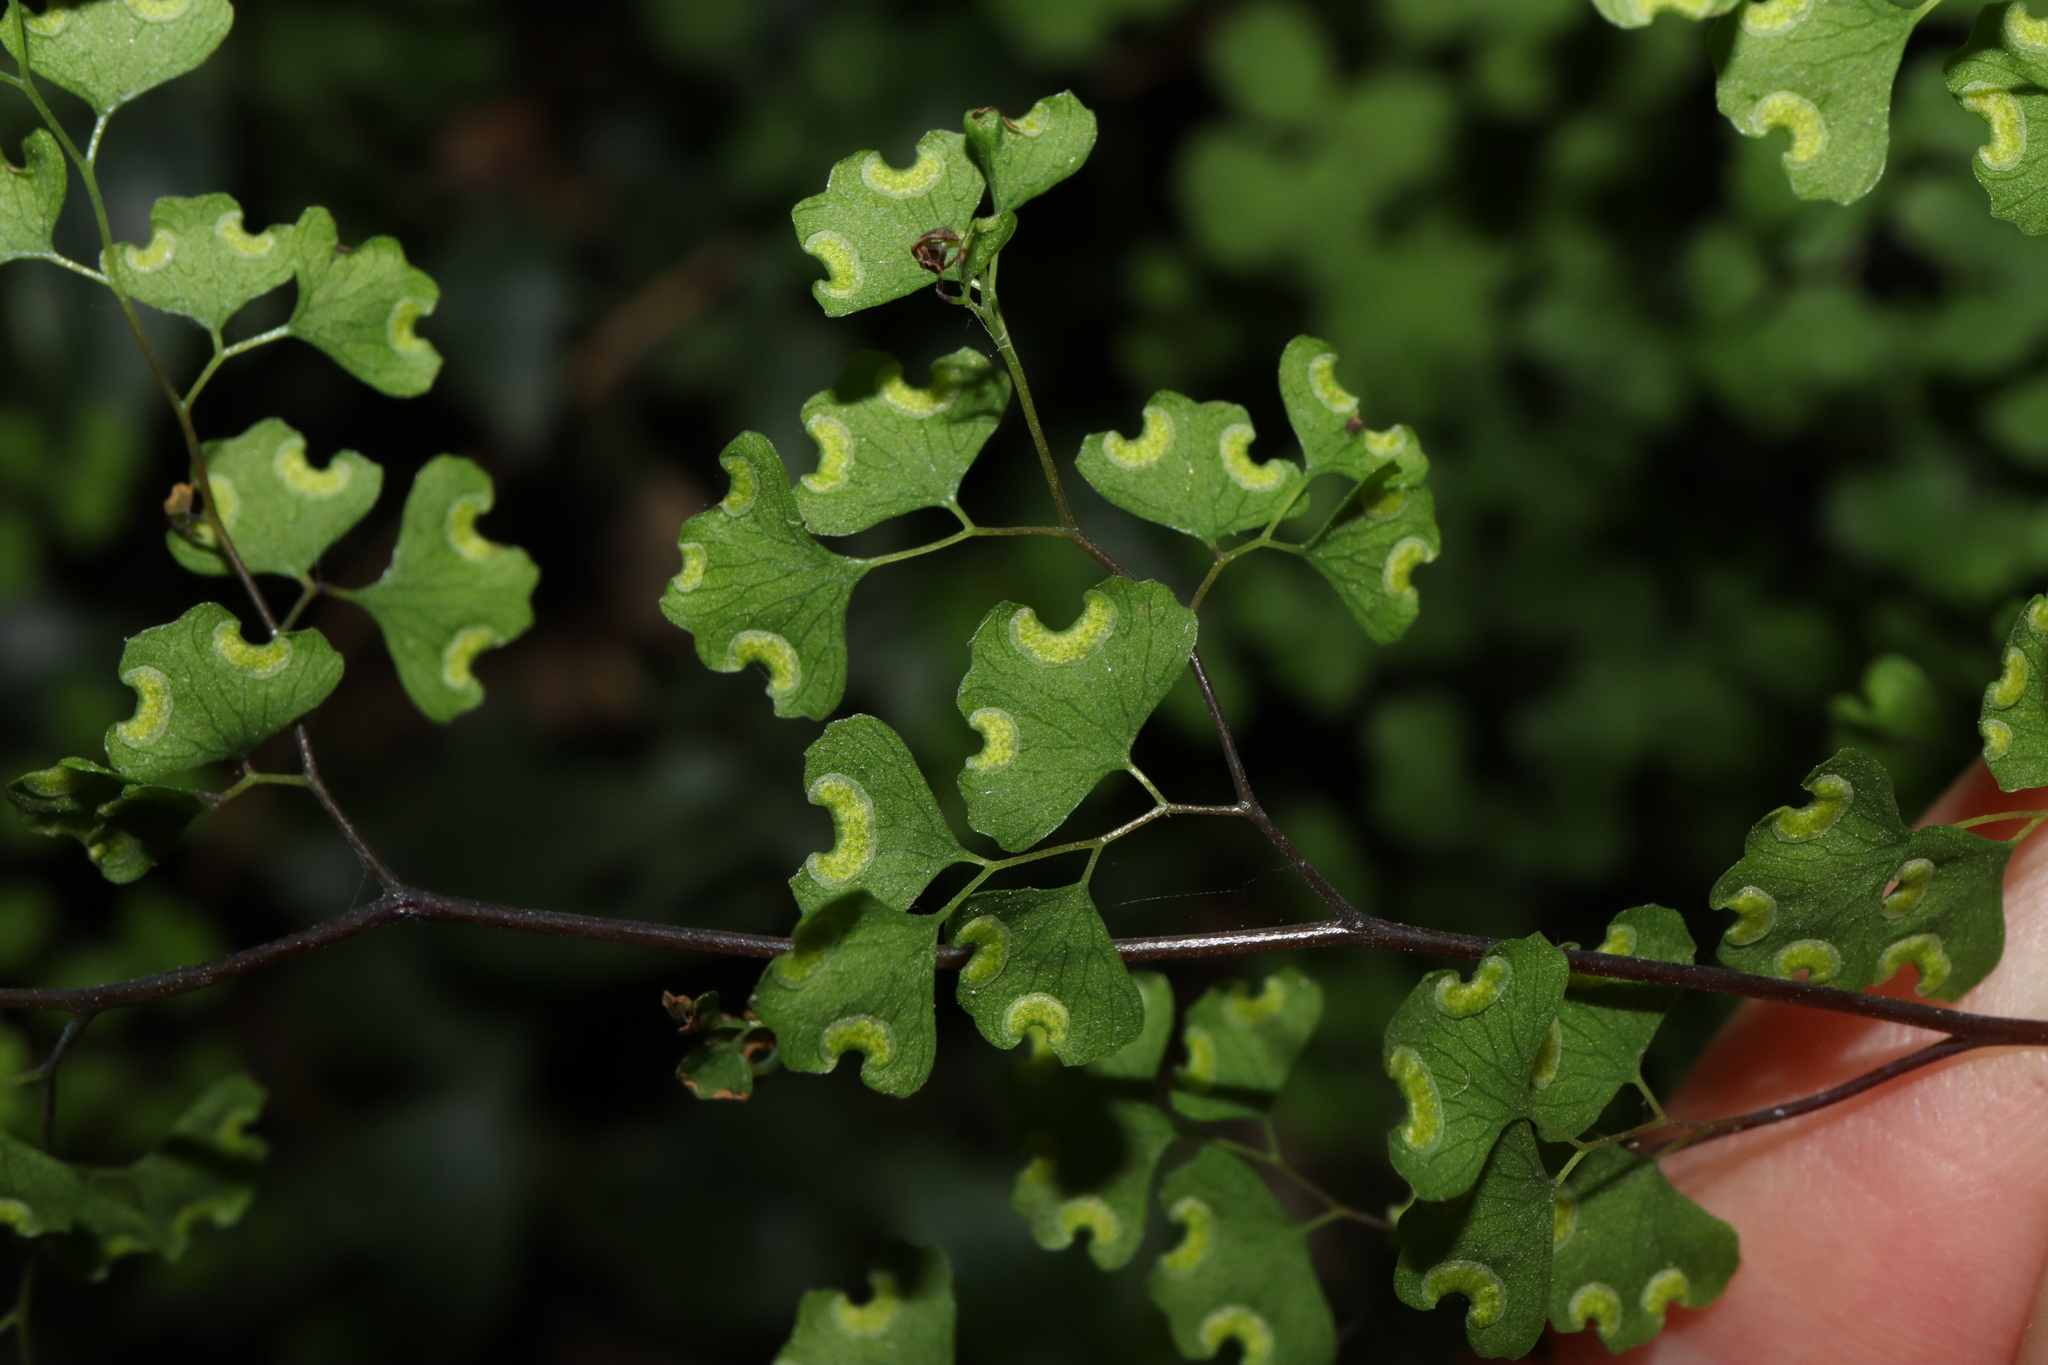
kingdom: Plantae
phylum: Tracheophyta
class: Polypodiopsida
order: Polypodiales
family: Pteridaceae
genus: Adiantum
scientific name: Adiantum aethiopicum
